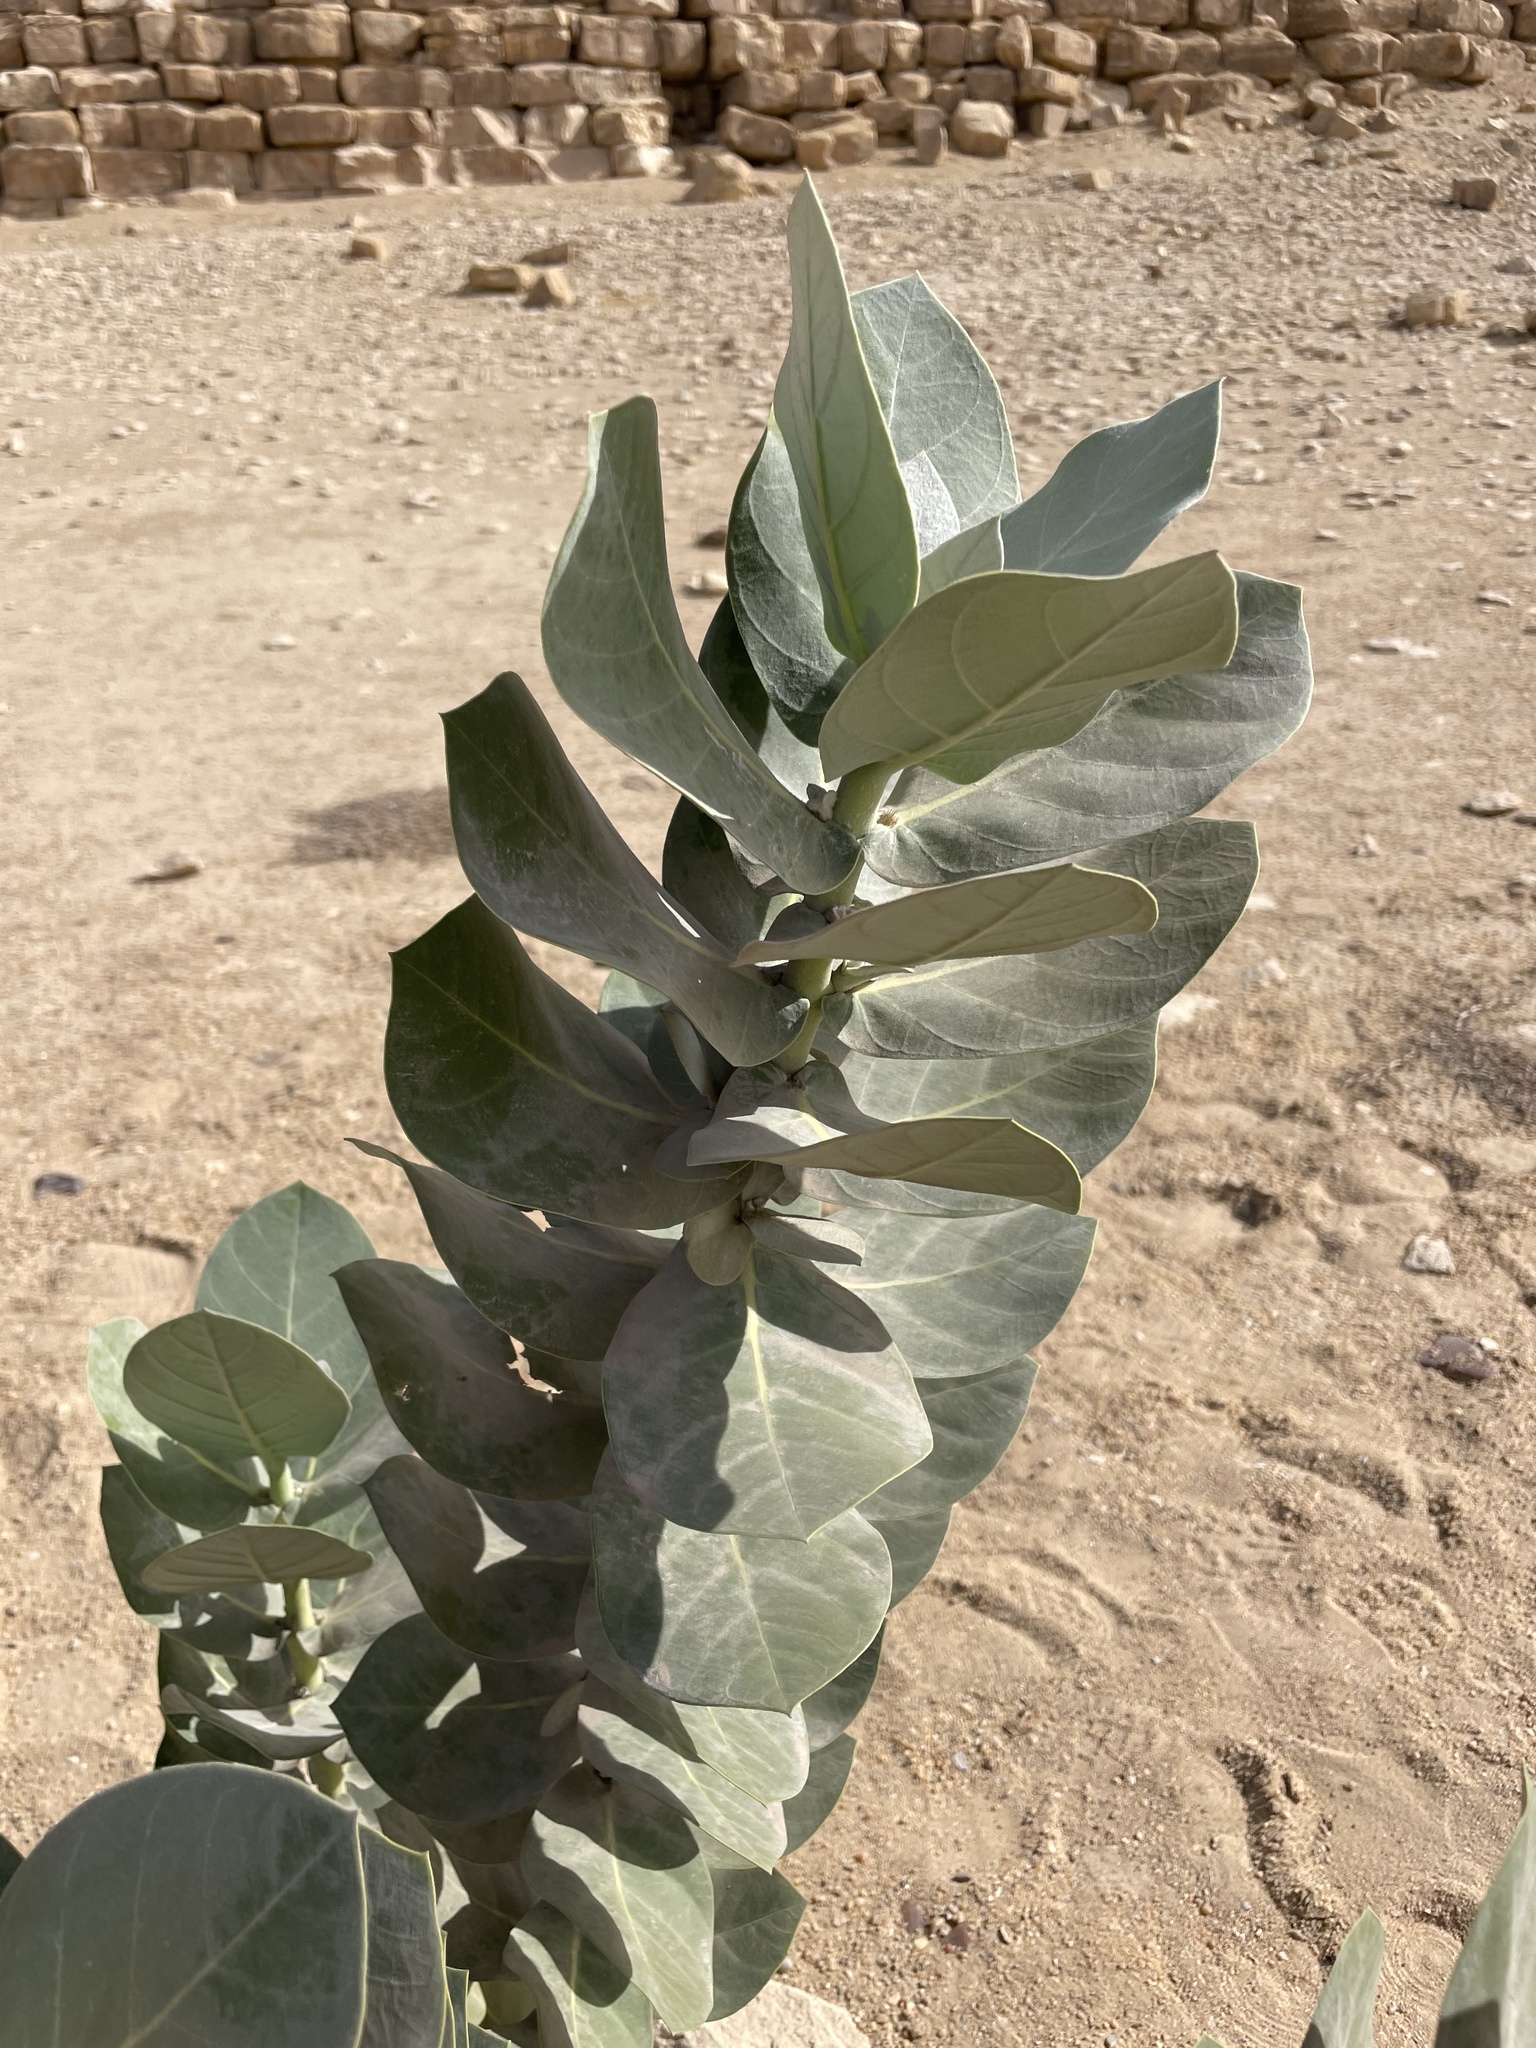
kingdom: Plantae
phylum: Tracheophyta
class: Magnoliopsida
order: Gentianales
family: Apocynaceae
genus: Calotropis
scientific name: Calotropis procera
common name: Roostertree
